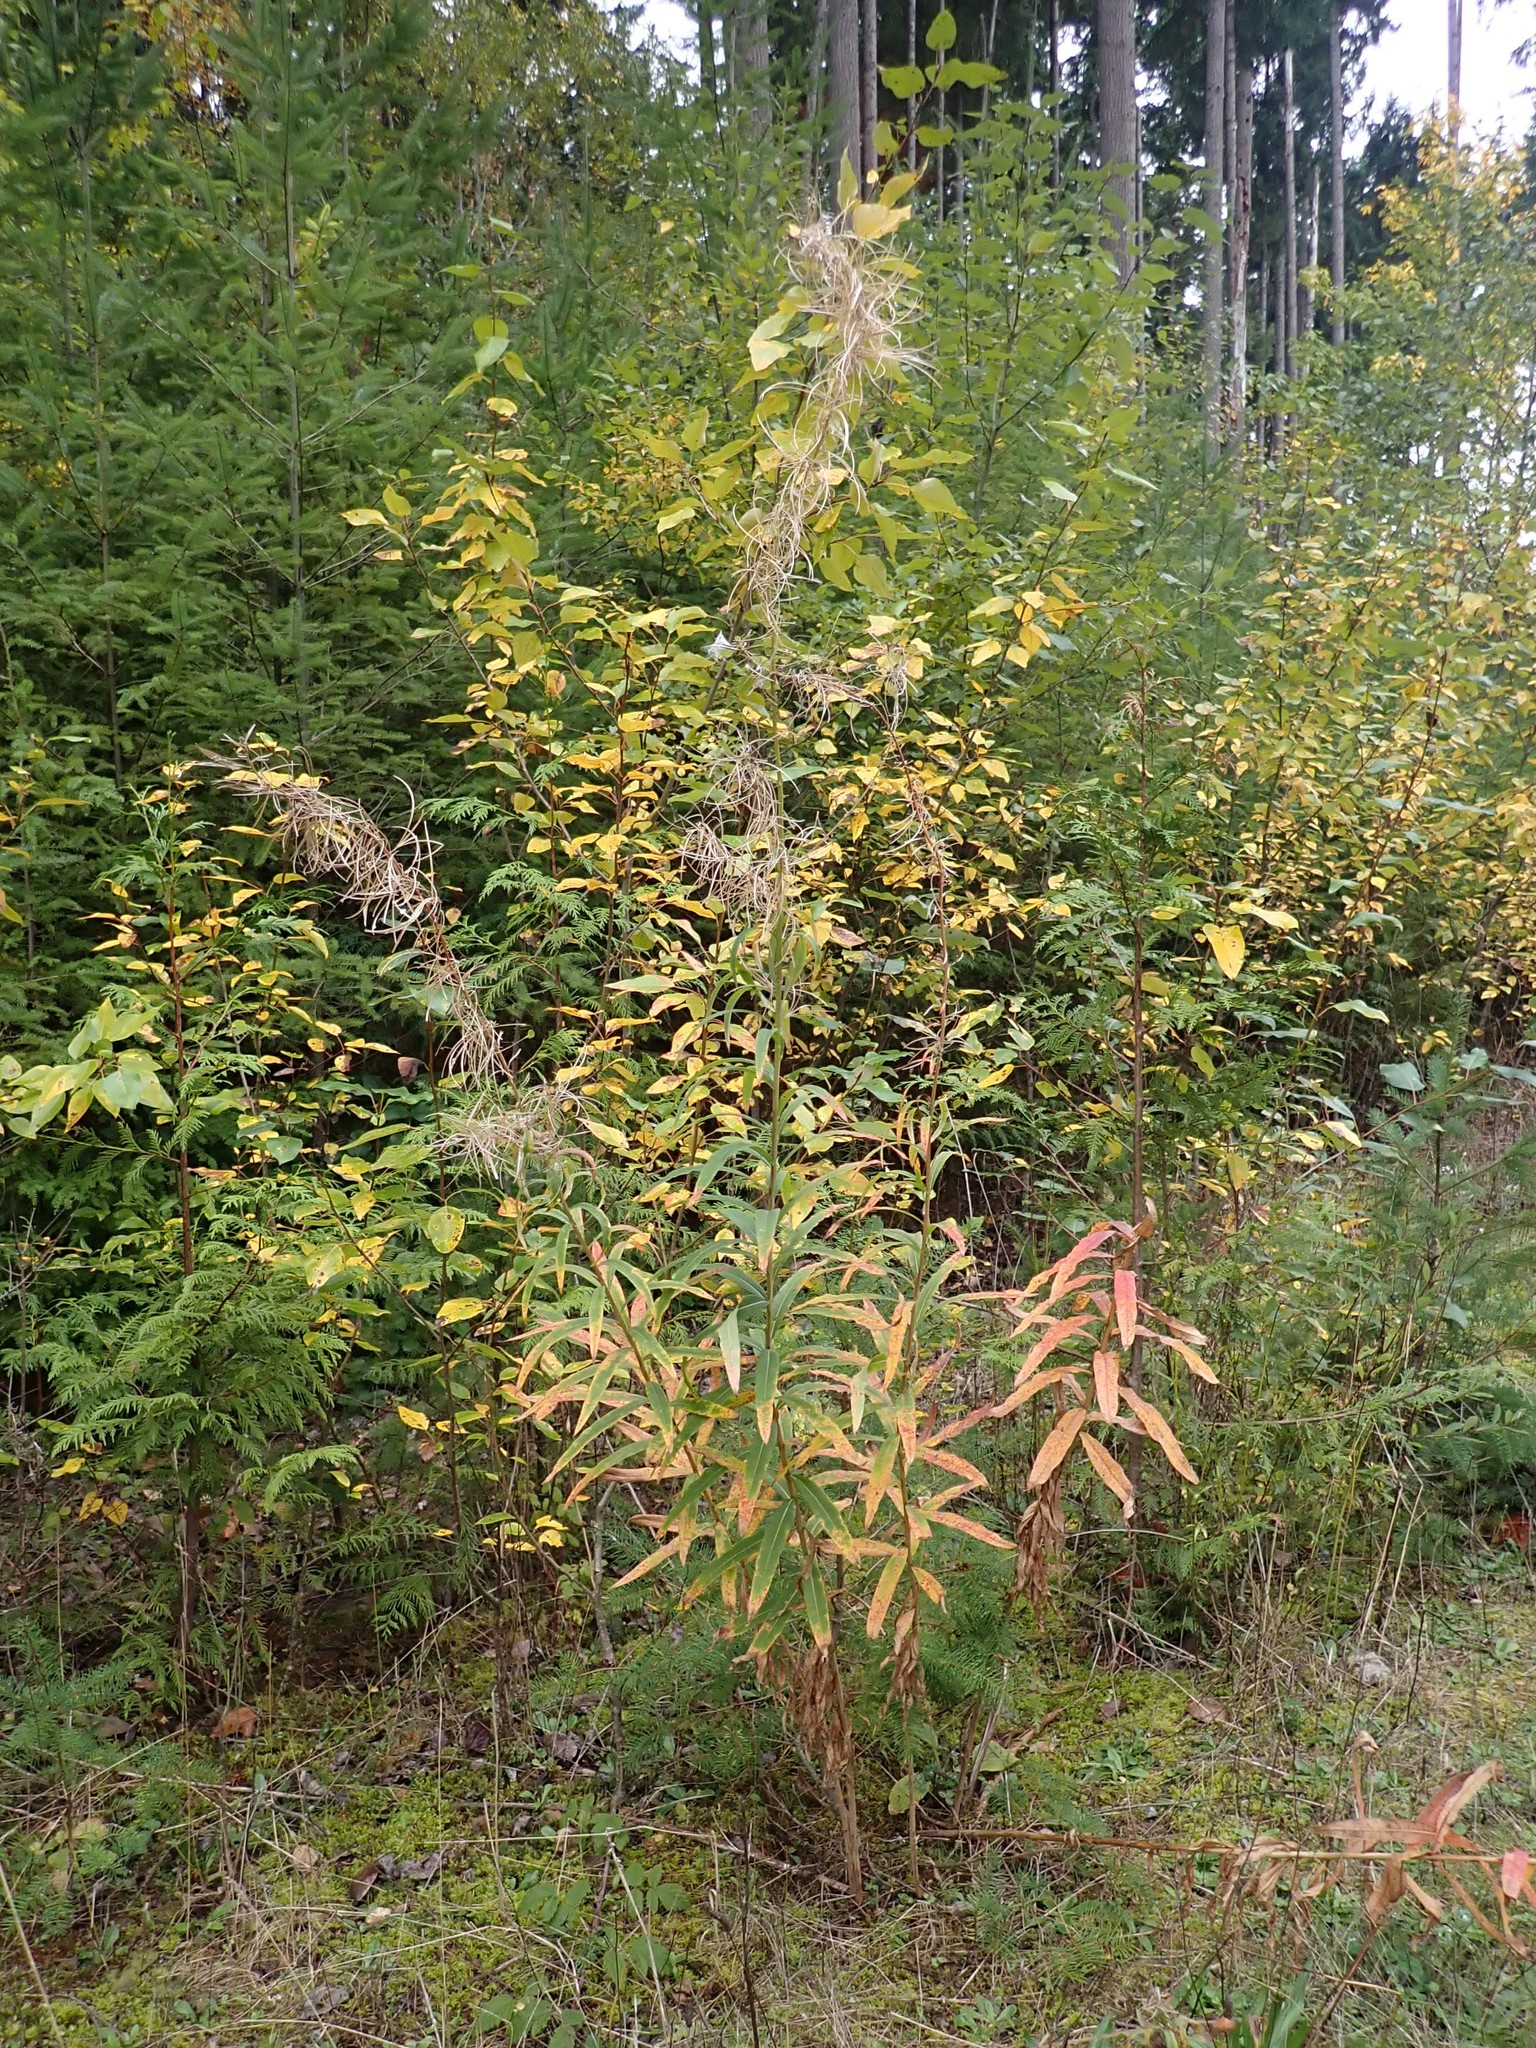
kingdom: Plantae
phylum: Tracheophyta
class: Magnoliopsida
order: Myrtales
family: Onagraceae
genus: Chamaenerion
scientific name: Chamaenerion angustifolium
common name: Fireweed
